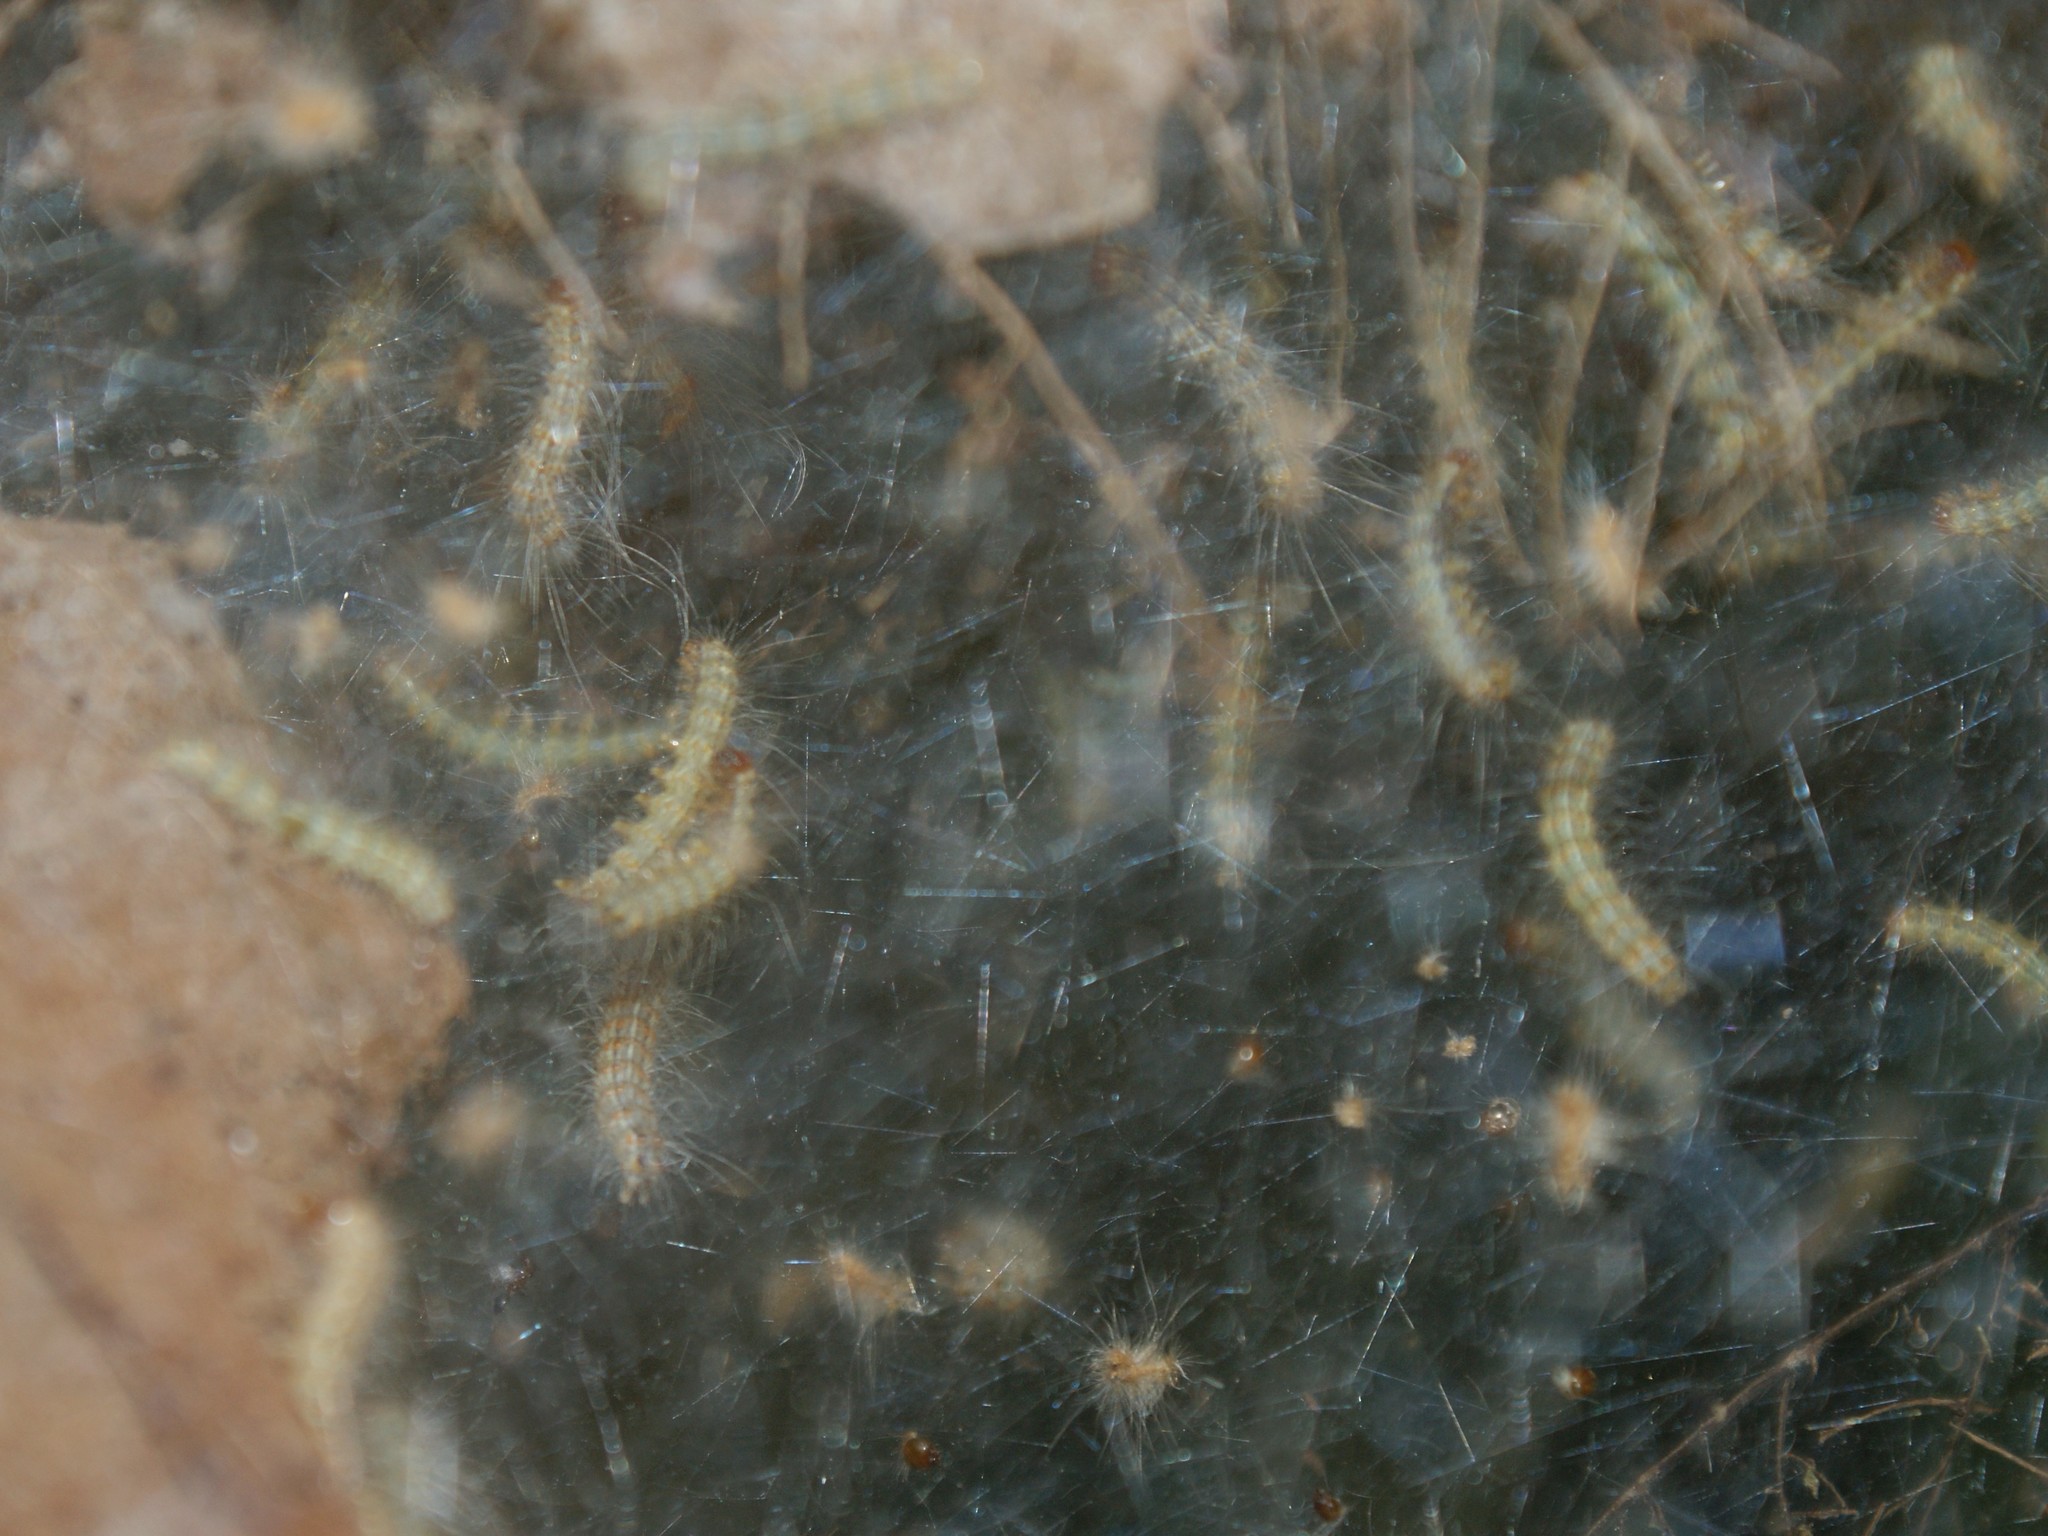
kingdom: Animalia
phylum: Arthropoda
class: Insecta
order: Lepidoptera
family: Erebidae
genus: Hyphantria
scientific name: Hyphantria cunea
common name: American white moth
